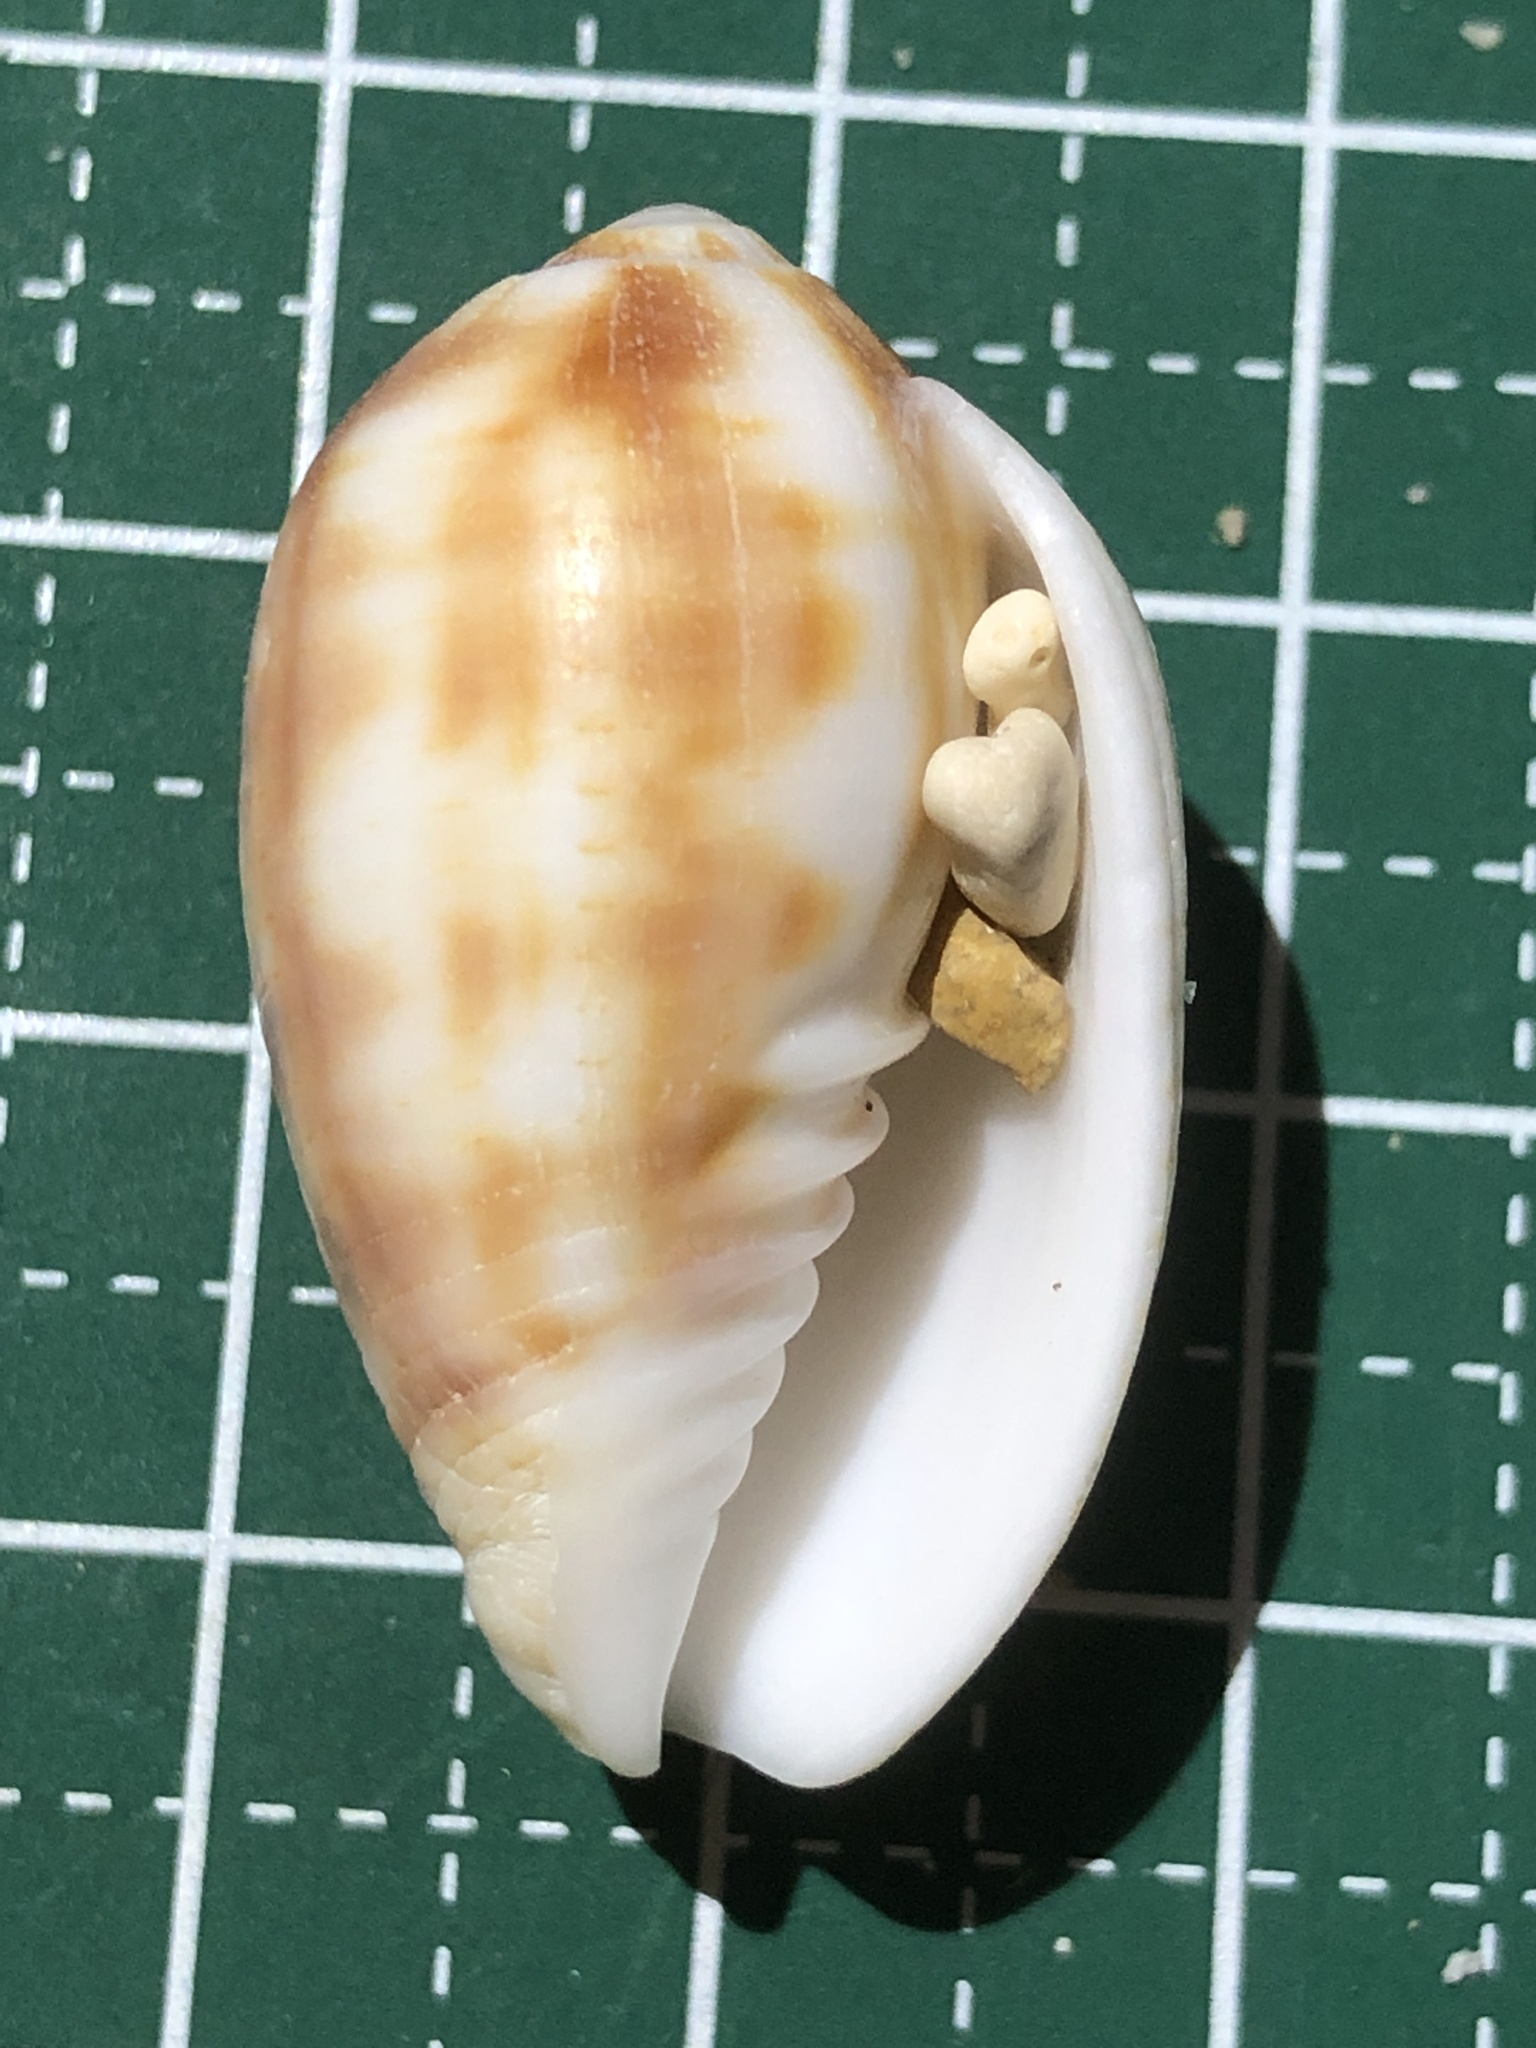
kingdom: Animalia
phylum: Mollusca
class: Gastropoda
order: Neogastropoda
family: Mitridae
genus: Pterygia
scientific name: Pterygia dactylus
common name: Finger miter
